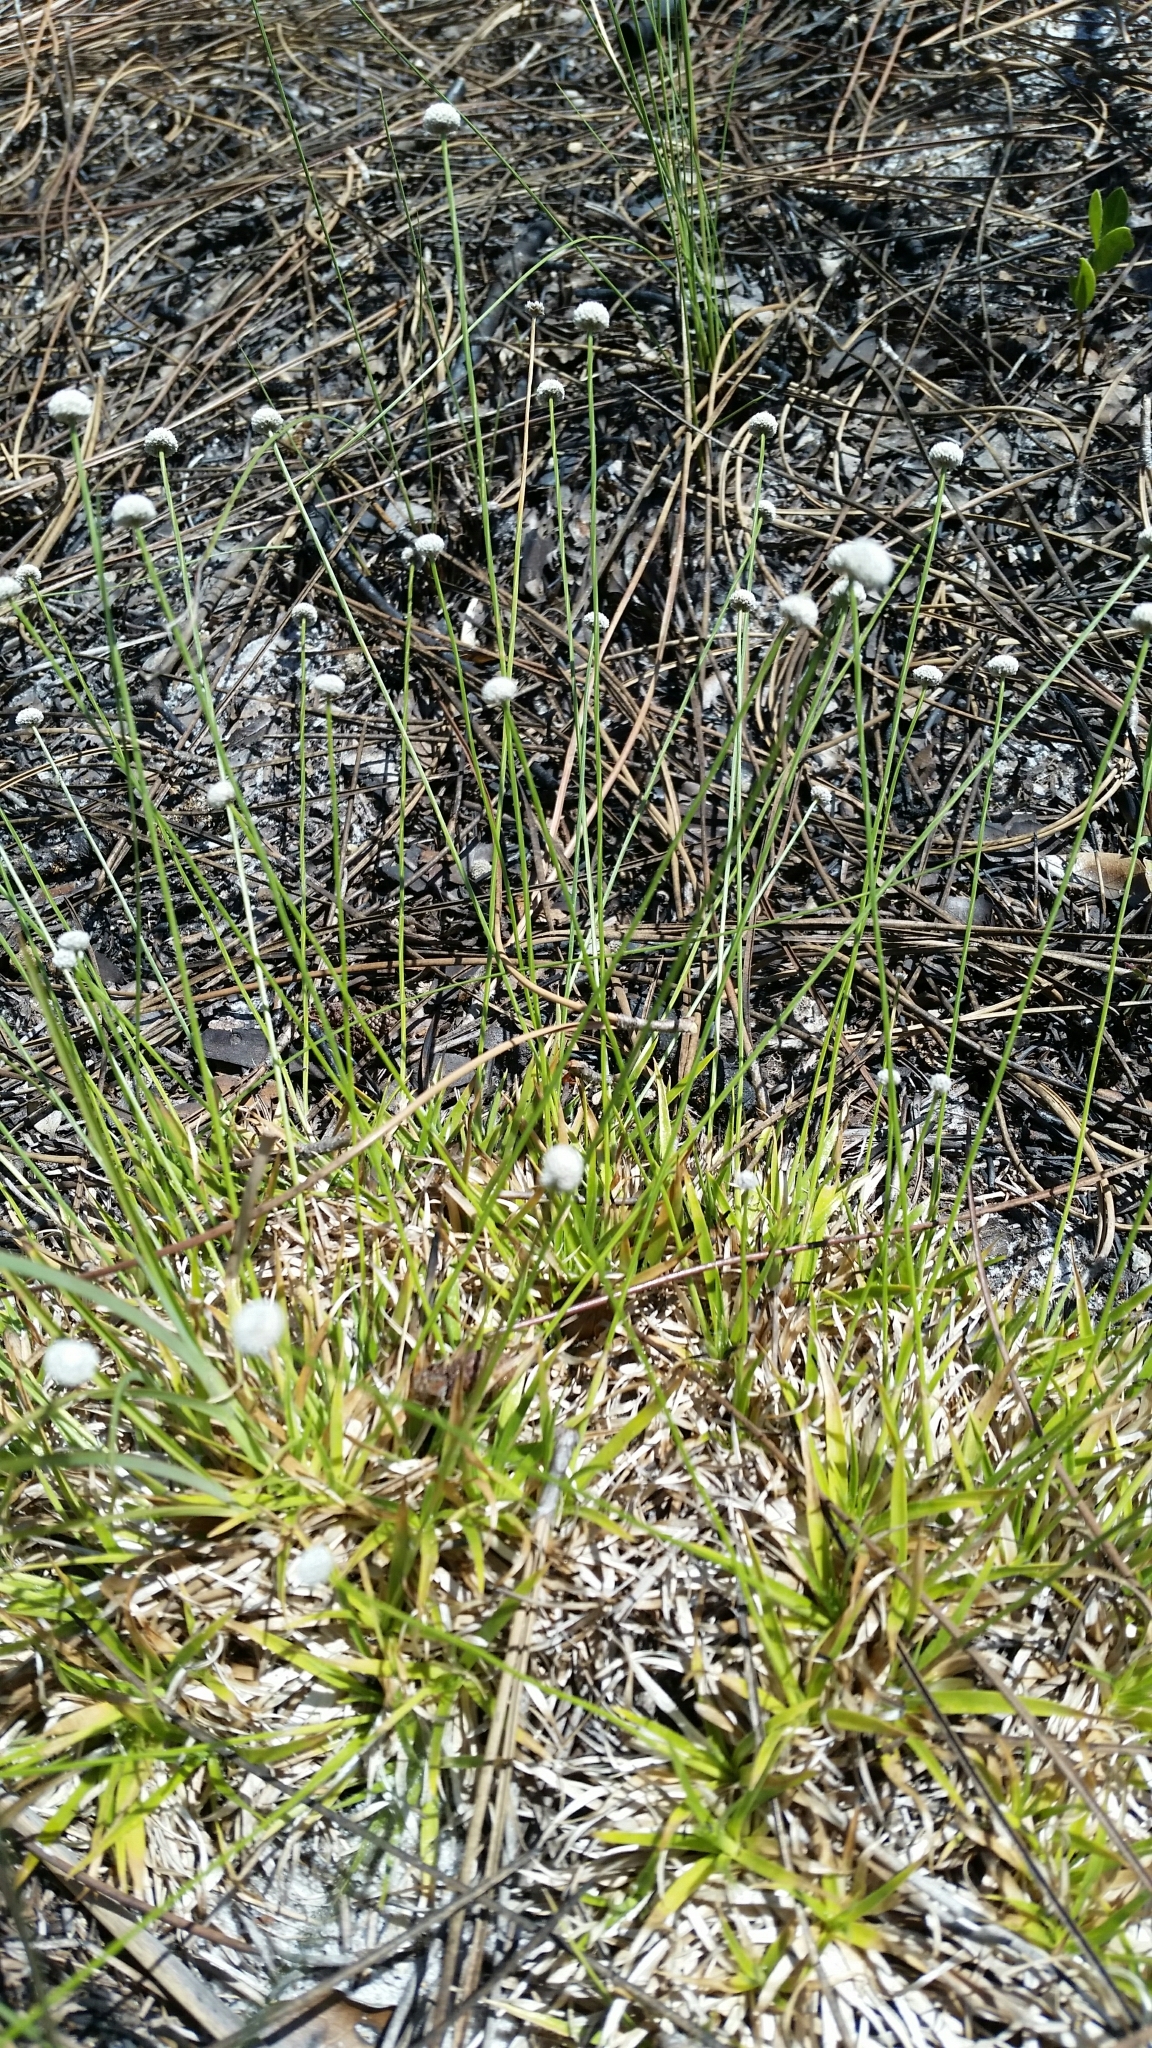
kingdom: Plantae
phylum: Tracheophyta
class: Liliopsida
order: Poales
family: Eriocaulaceae
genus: Paepalanthus
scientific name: Paepalanthus beyrichianus
